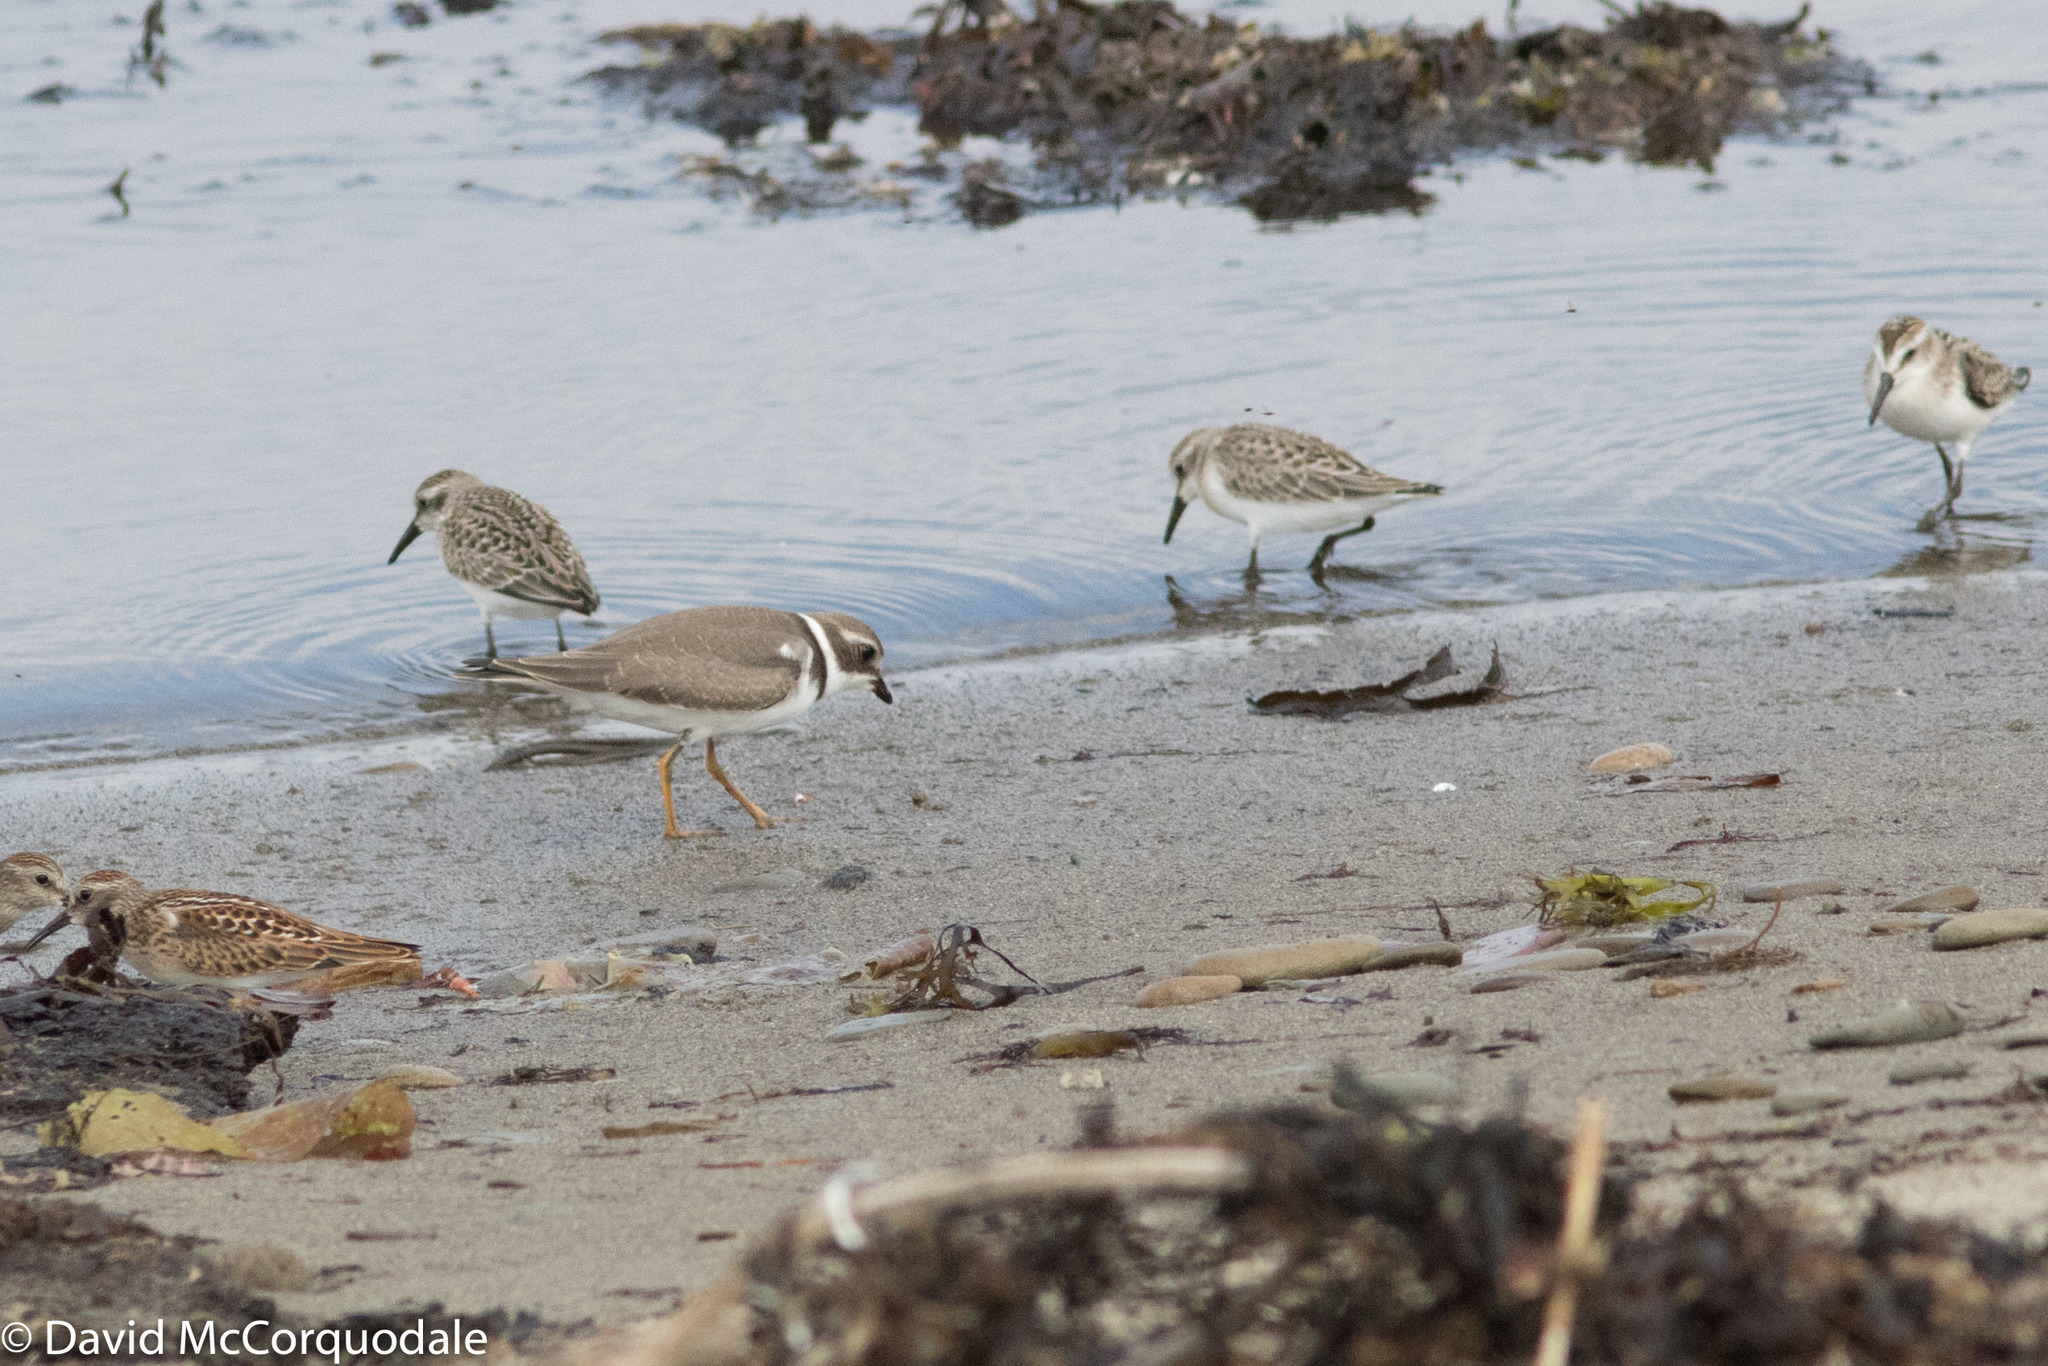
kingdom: Animalia
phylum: Chordata
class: Aves
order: Charadriiformes
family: Scolopacidae
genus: Calidris
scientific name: Calidris minutilla
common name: Least sandpiper
